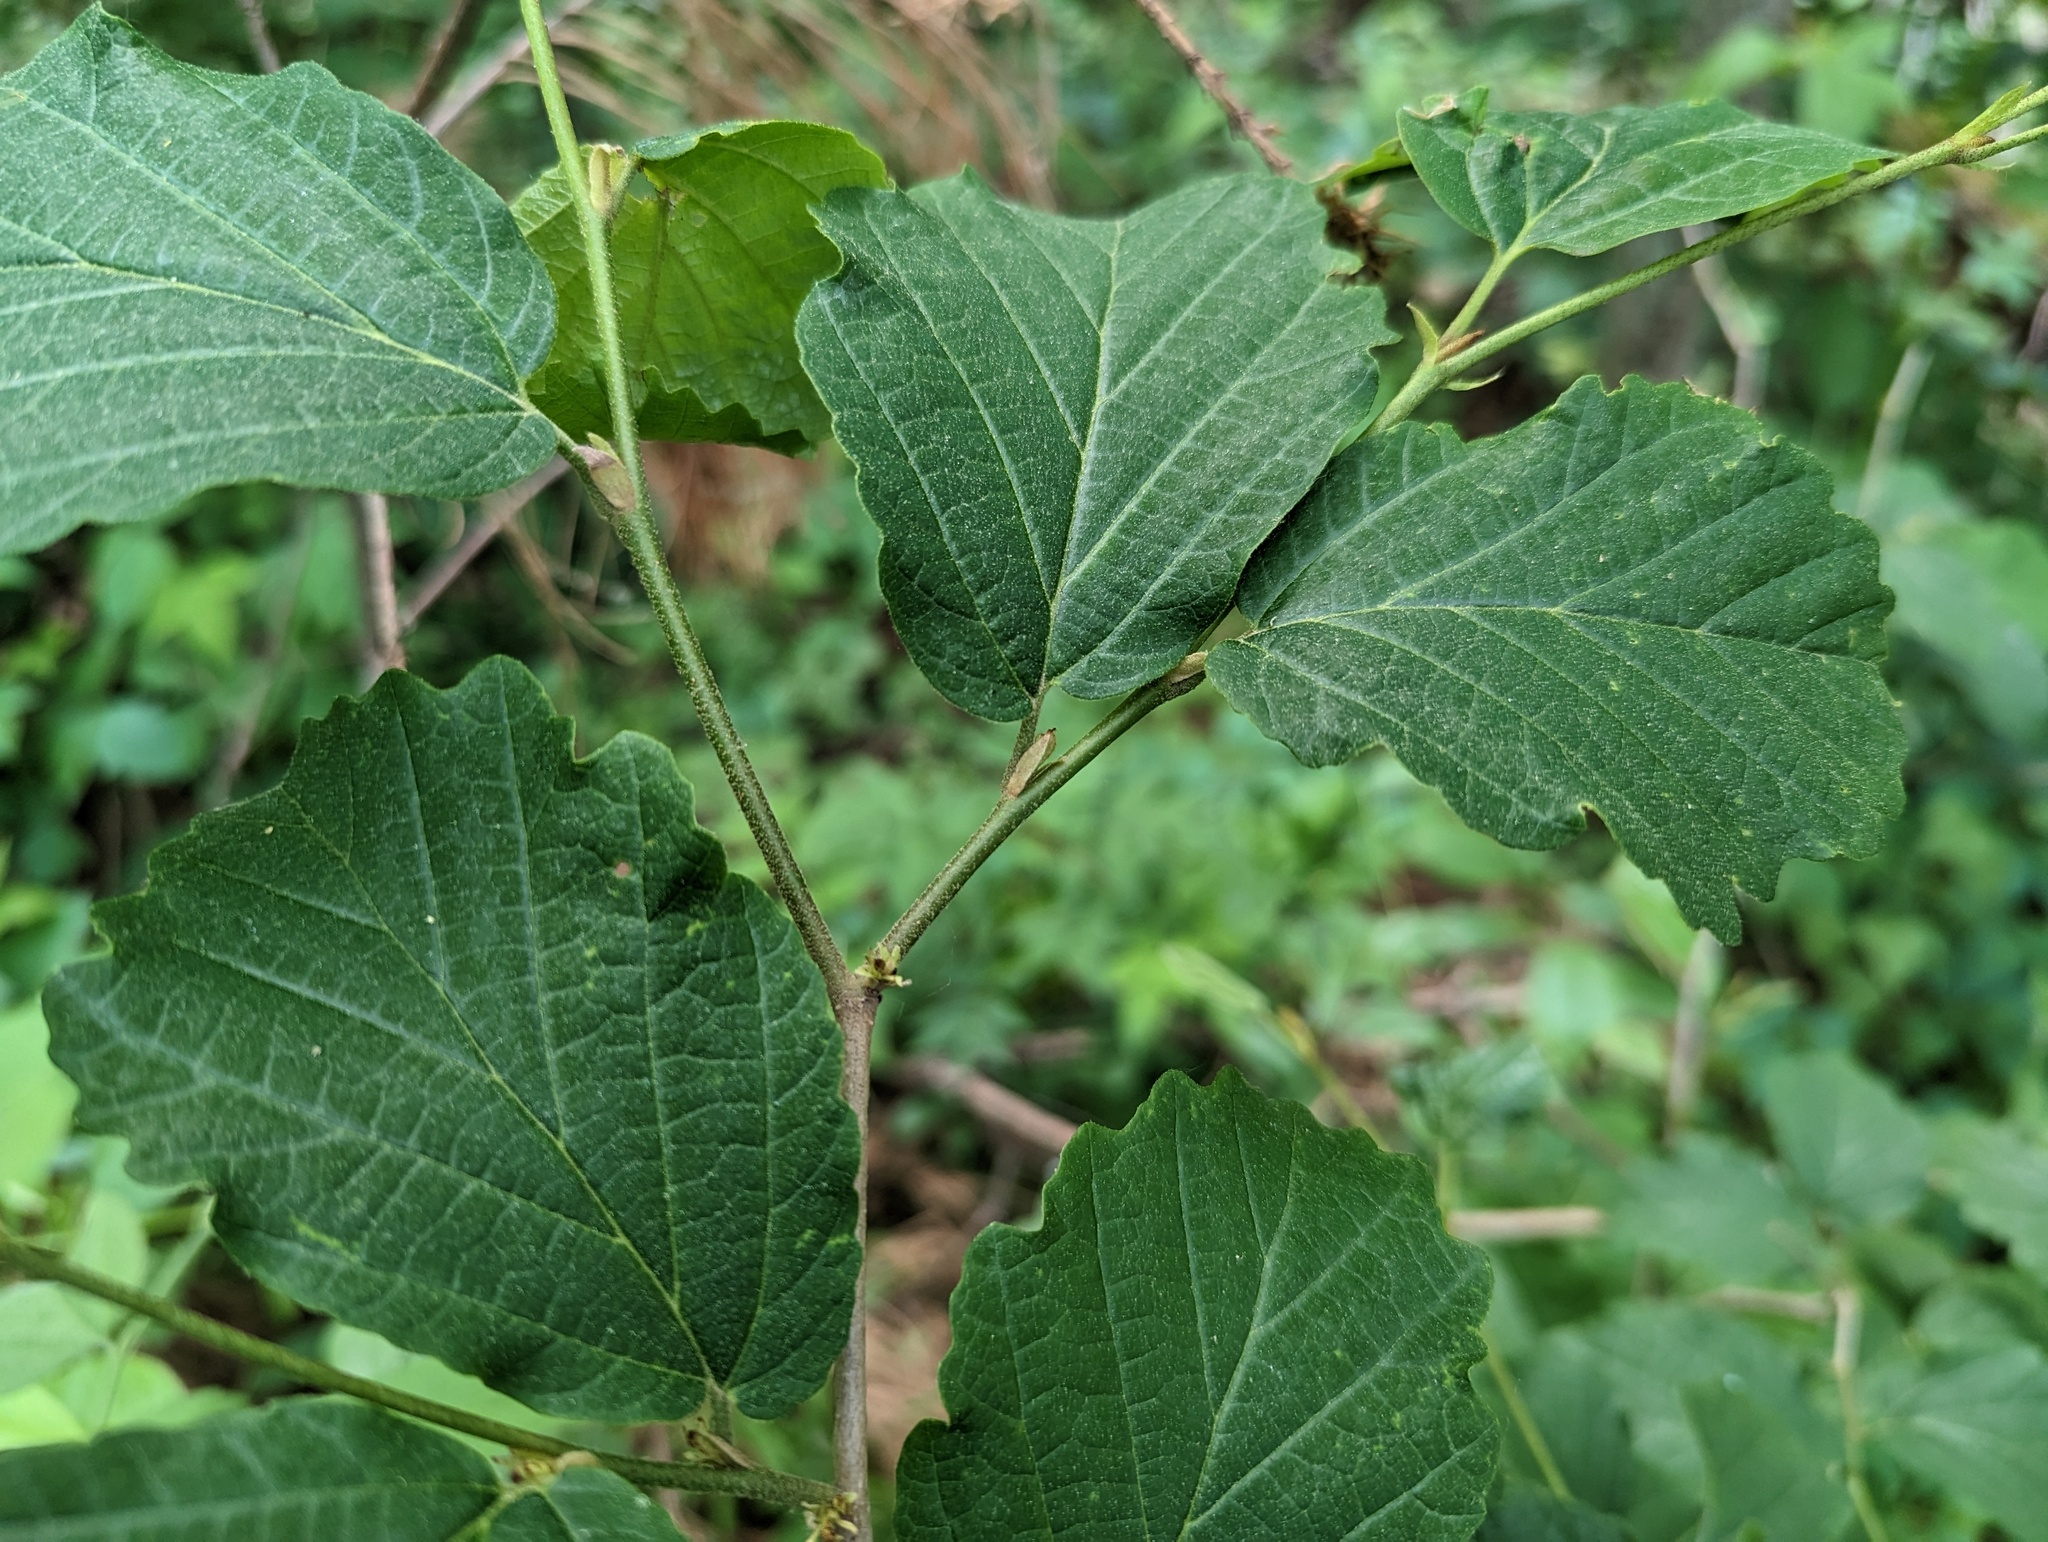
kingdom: Plantae
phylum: Tracheophyta
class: Magnoliopsida
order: Saxifragales
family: Hamamelidaceae
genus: Hamamelis
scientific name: Hamamelis virginiana
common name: Witch-hazel
